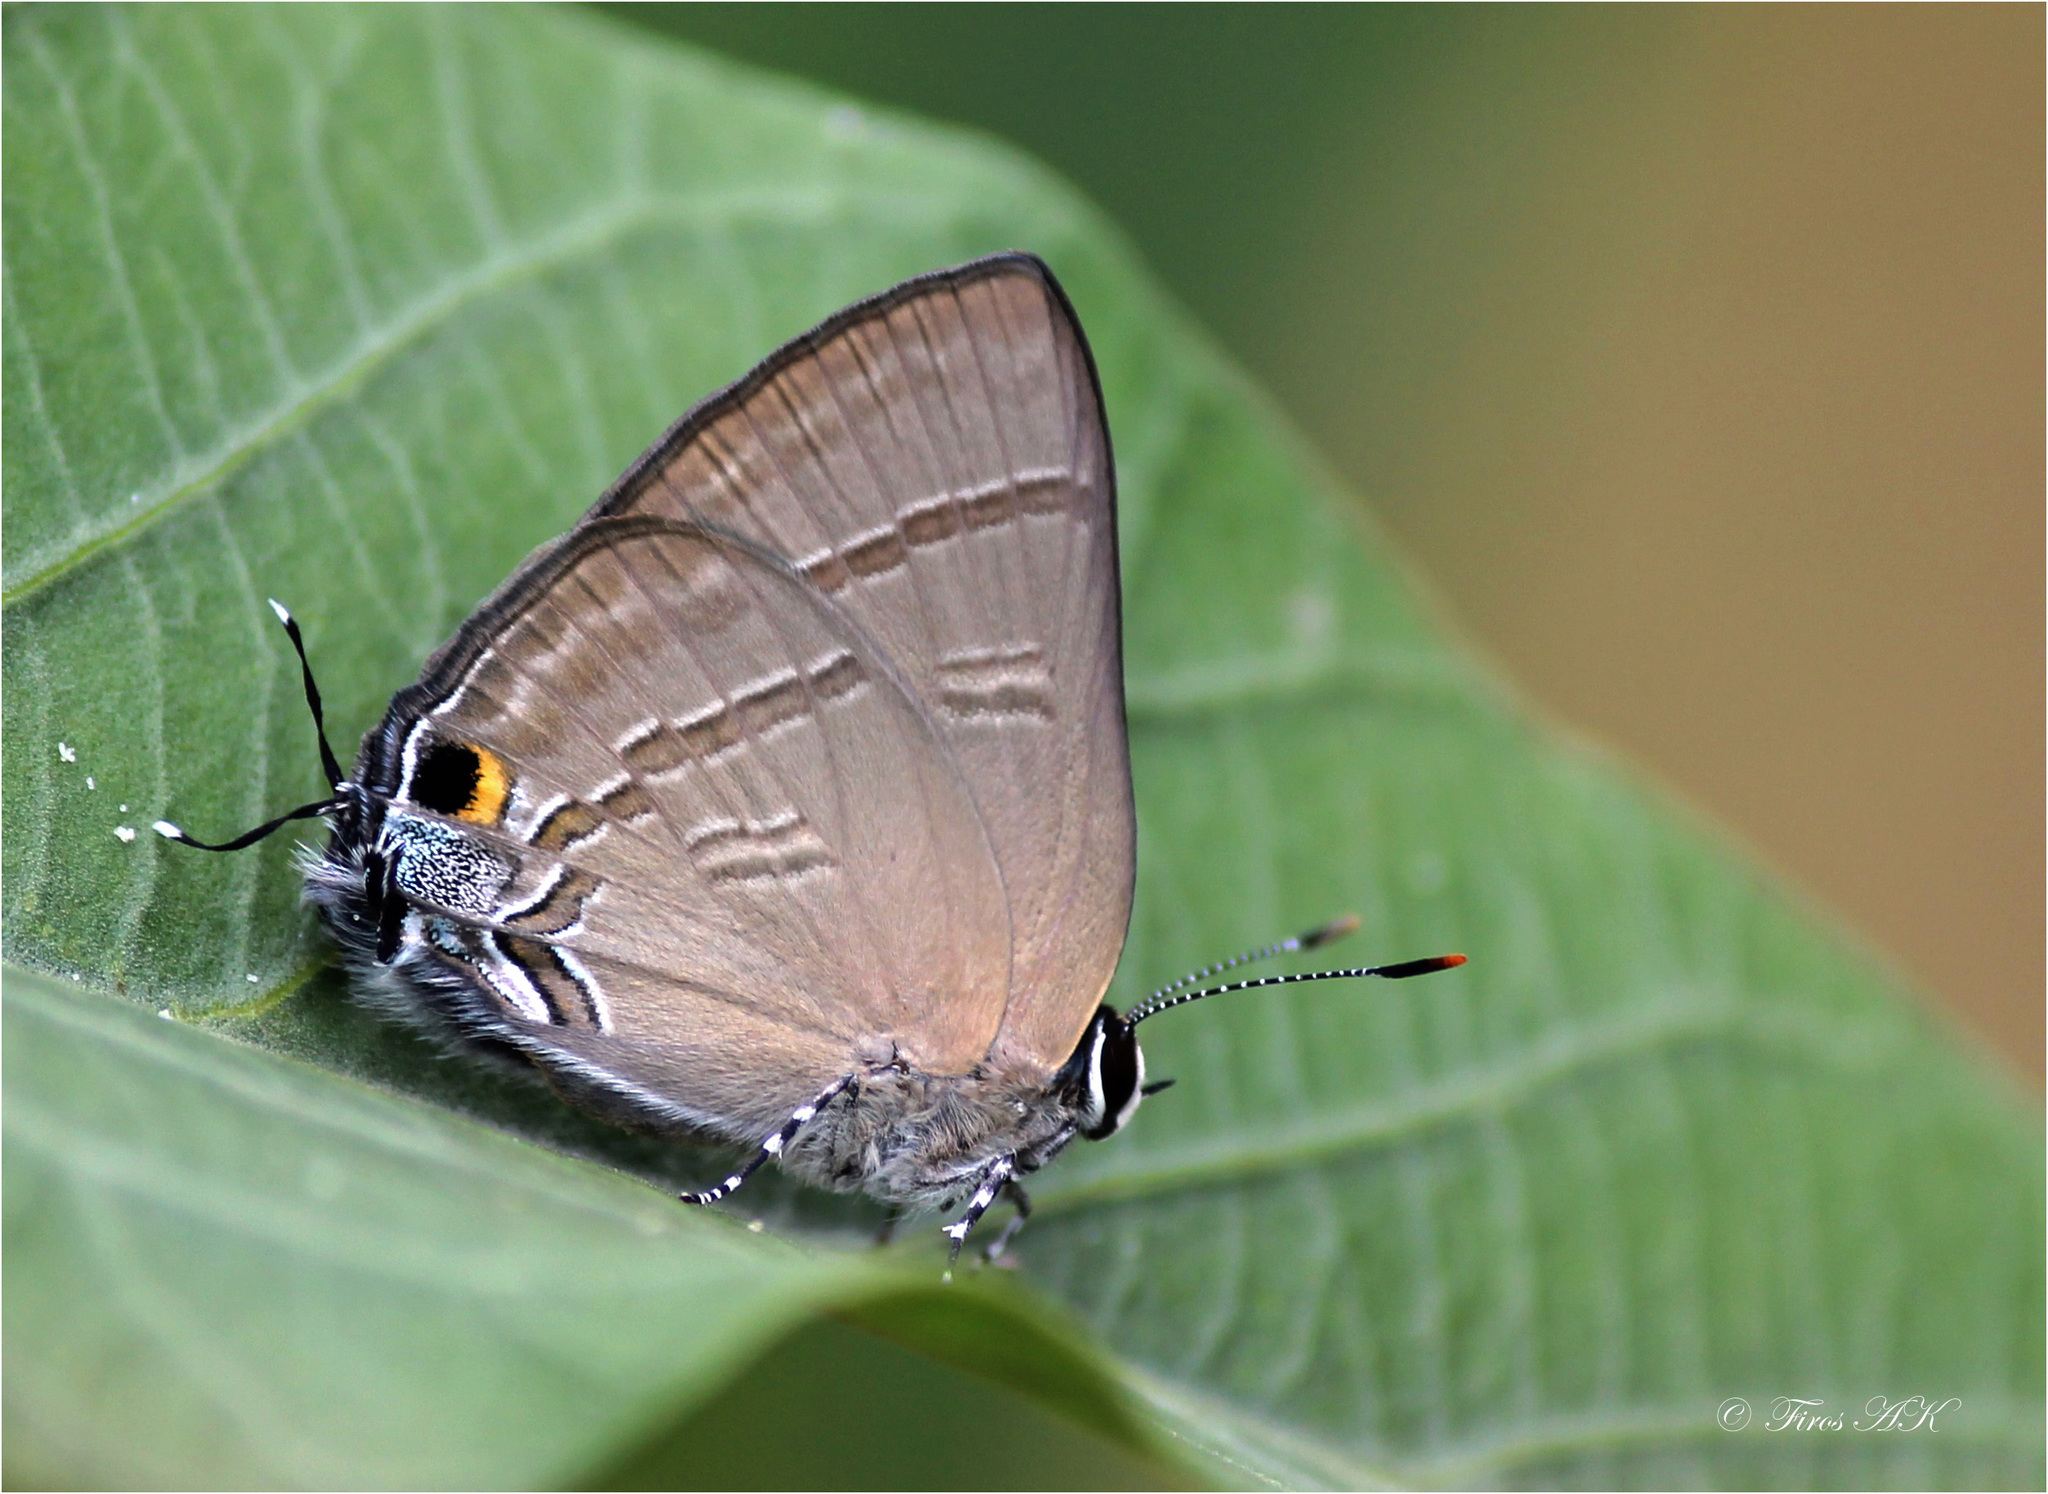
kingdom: Animalia
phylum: Arthropoda
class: Insecta
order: Lepidoptera
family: Lycaenidae
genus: Rapala
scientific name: Rapala manea
